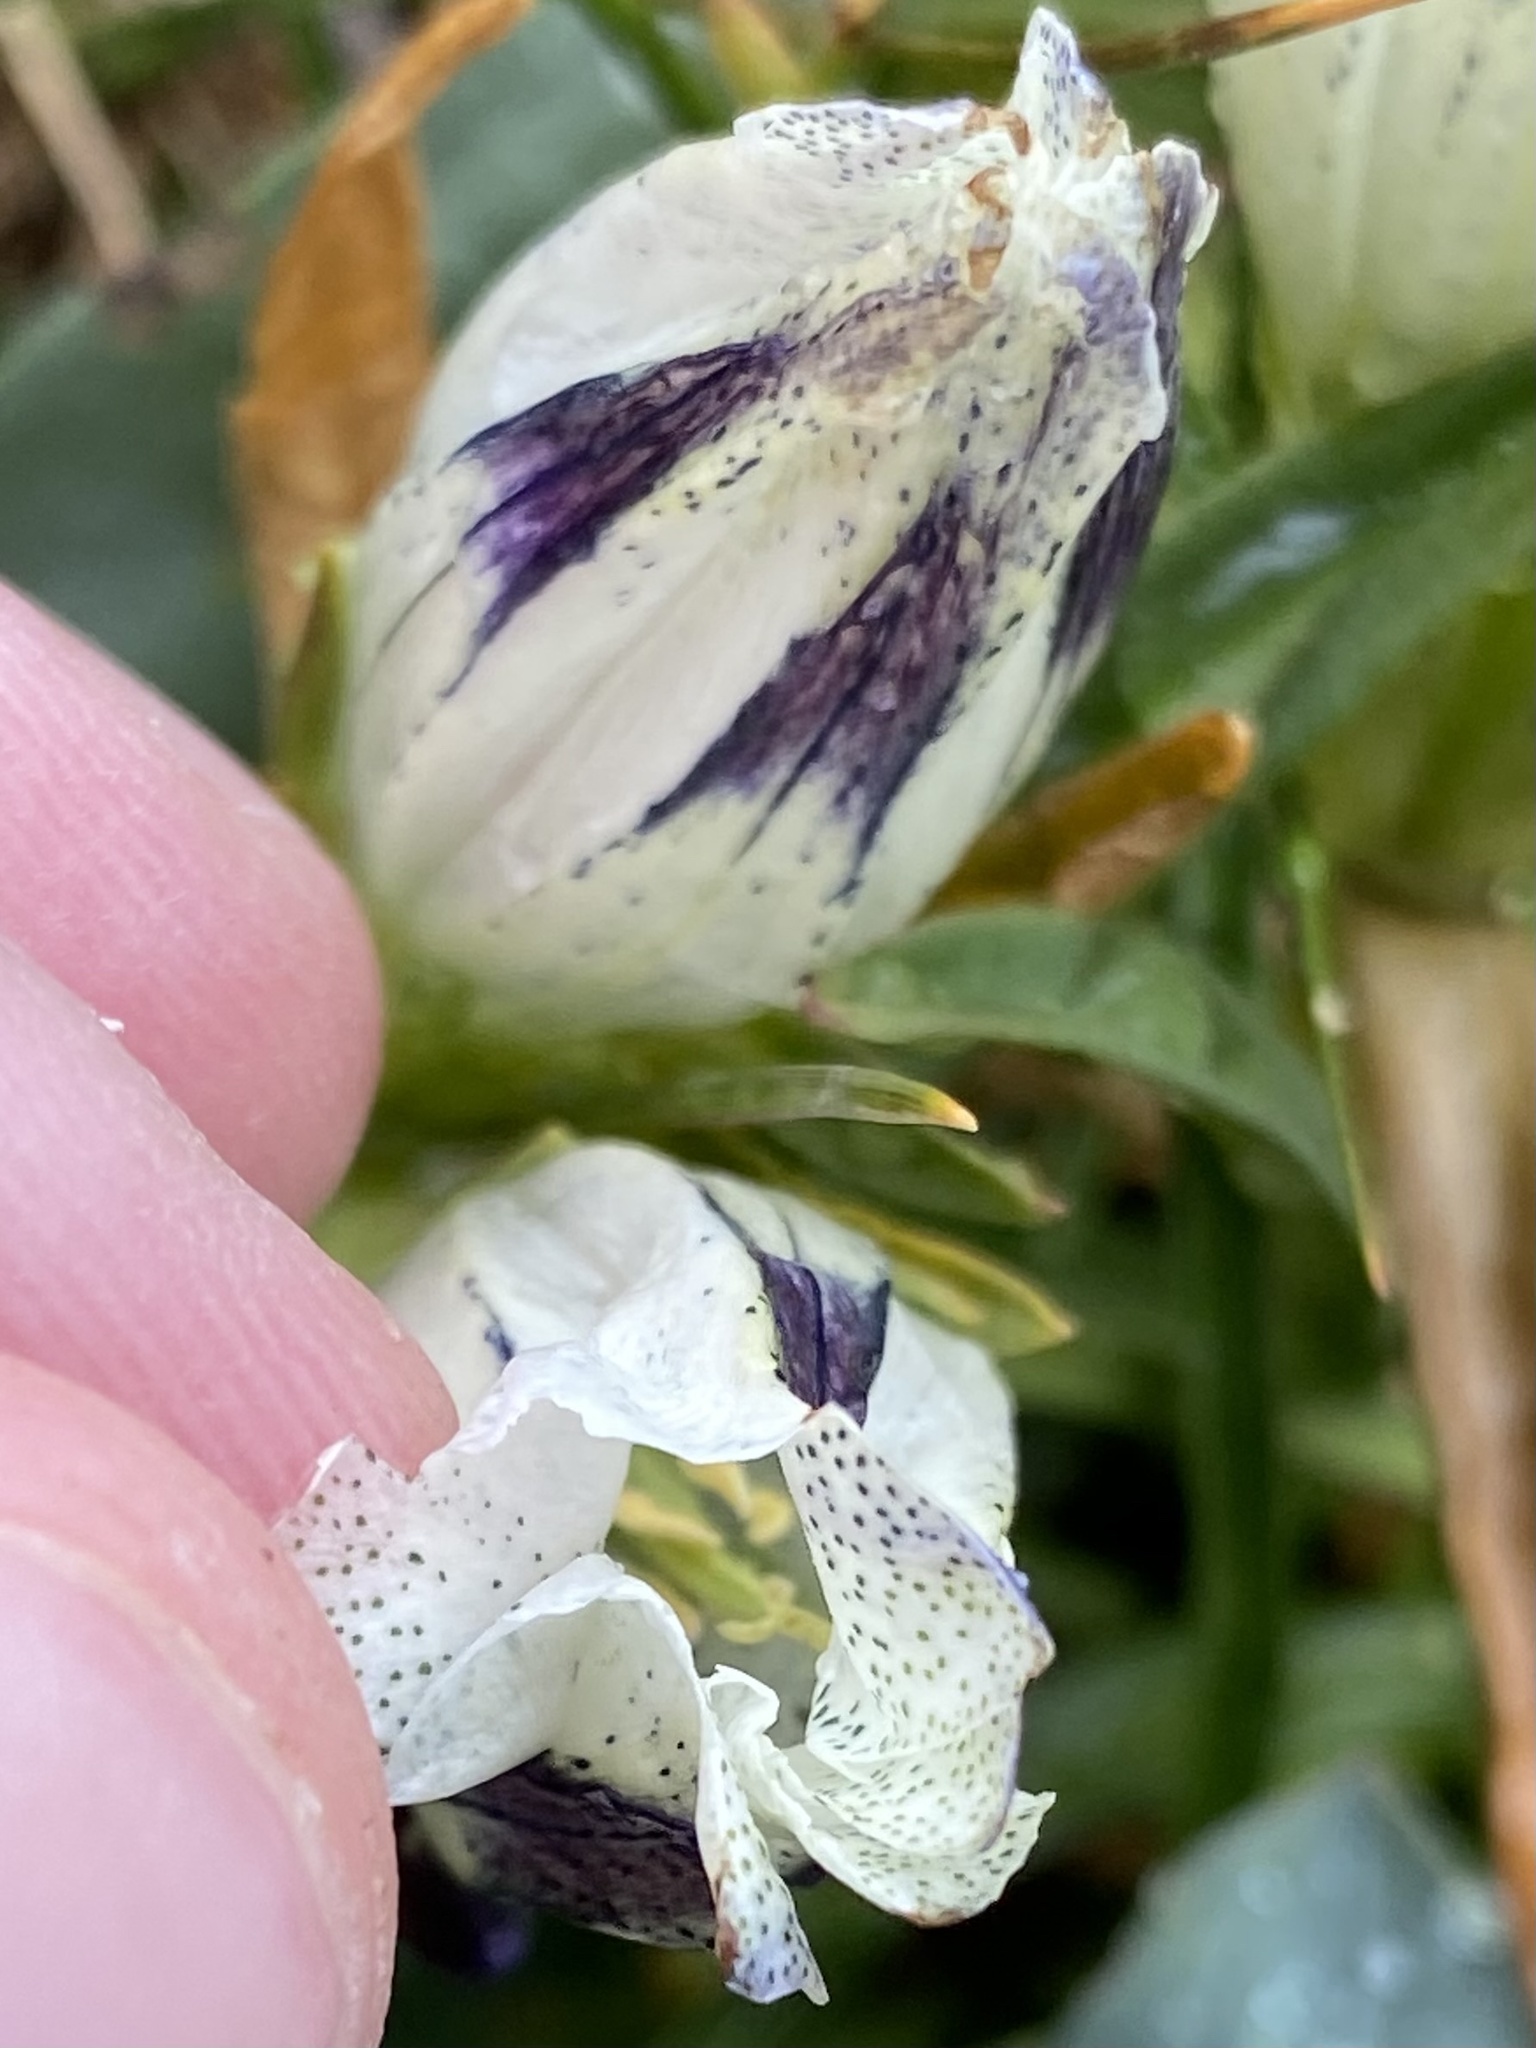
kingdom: Plantae
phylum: Tracheophyta
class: Magnoliopsida
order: Gentianales
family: Gentianaceae
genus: Gentiana
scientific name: Gentiana algida
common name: Arctic gentian
